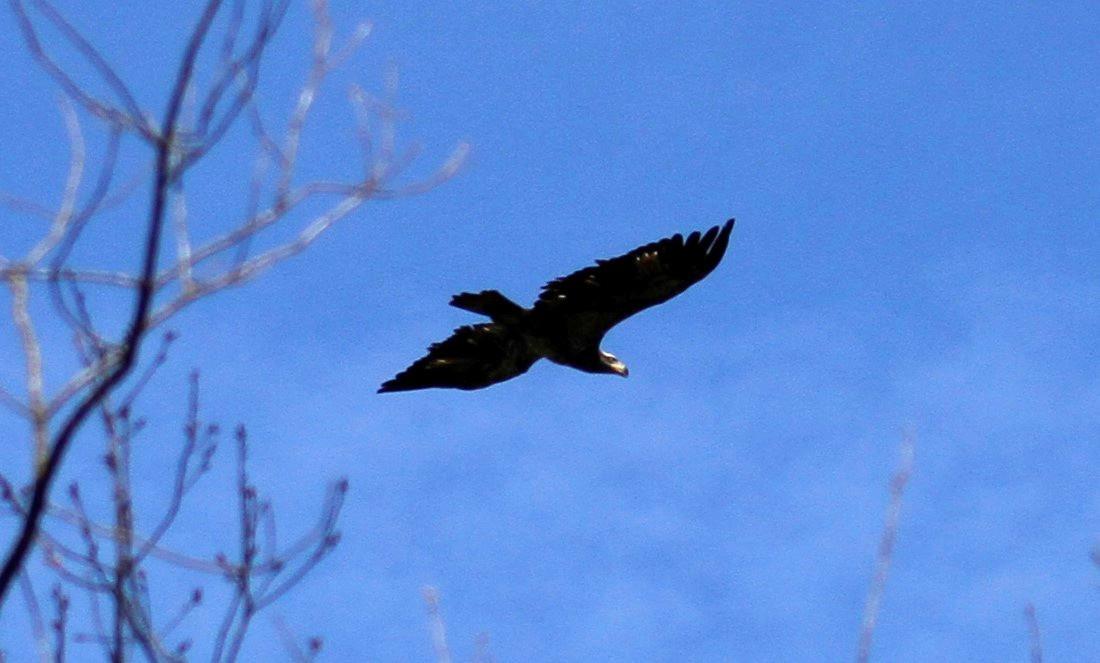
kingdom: Animalia
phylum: Chordata
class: Aves
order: Accipitriformes
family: Accipitridae
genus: Haliaeetus
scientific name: Haliaeetus leucocephalus
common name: Bald eagle
